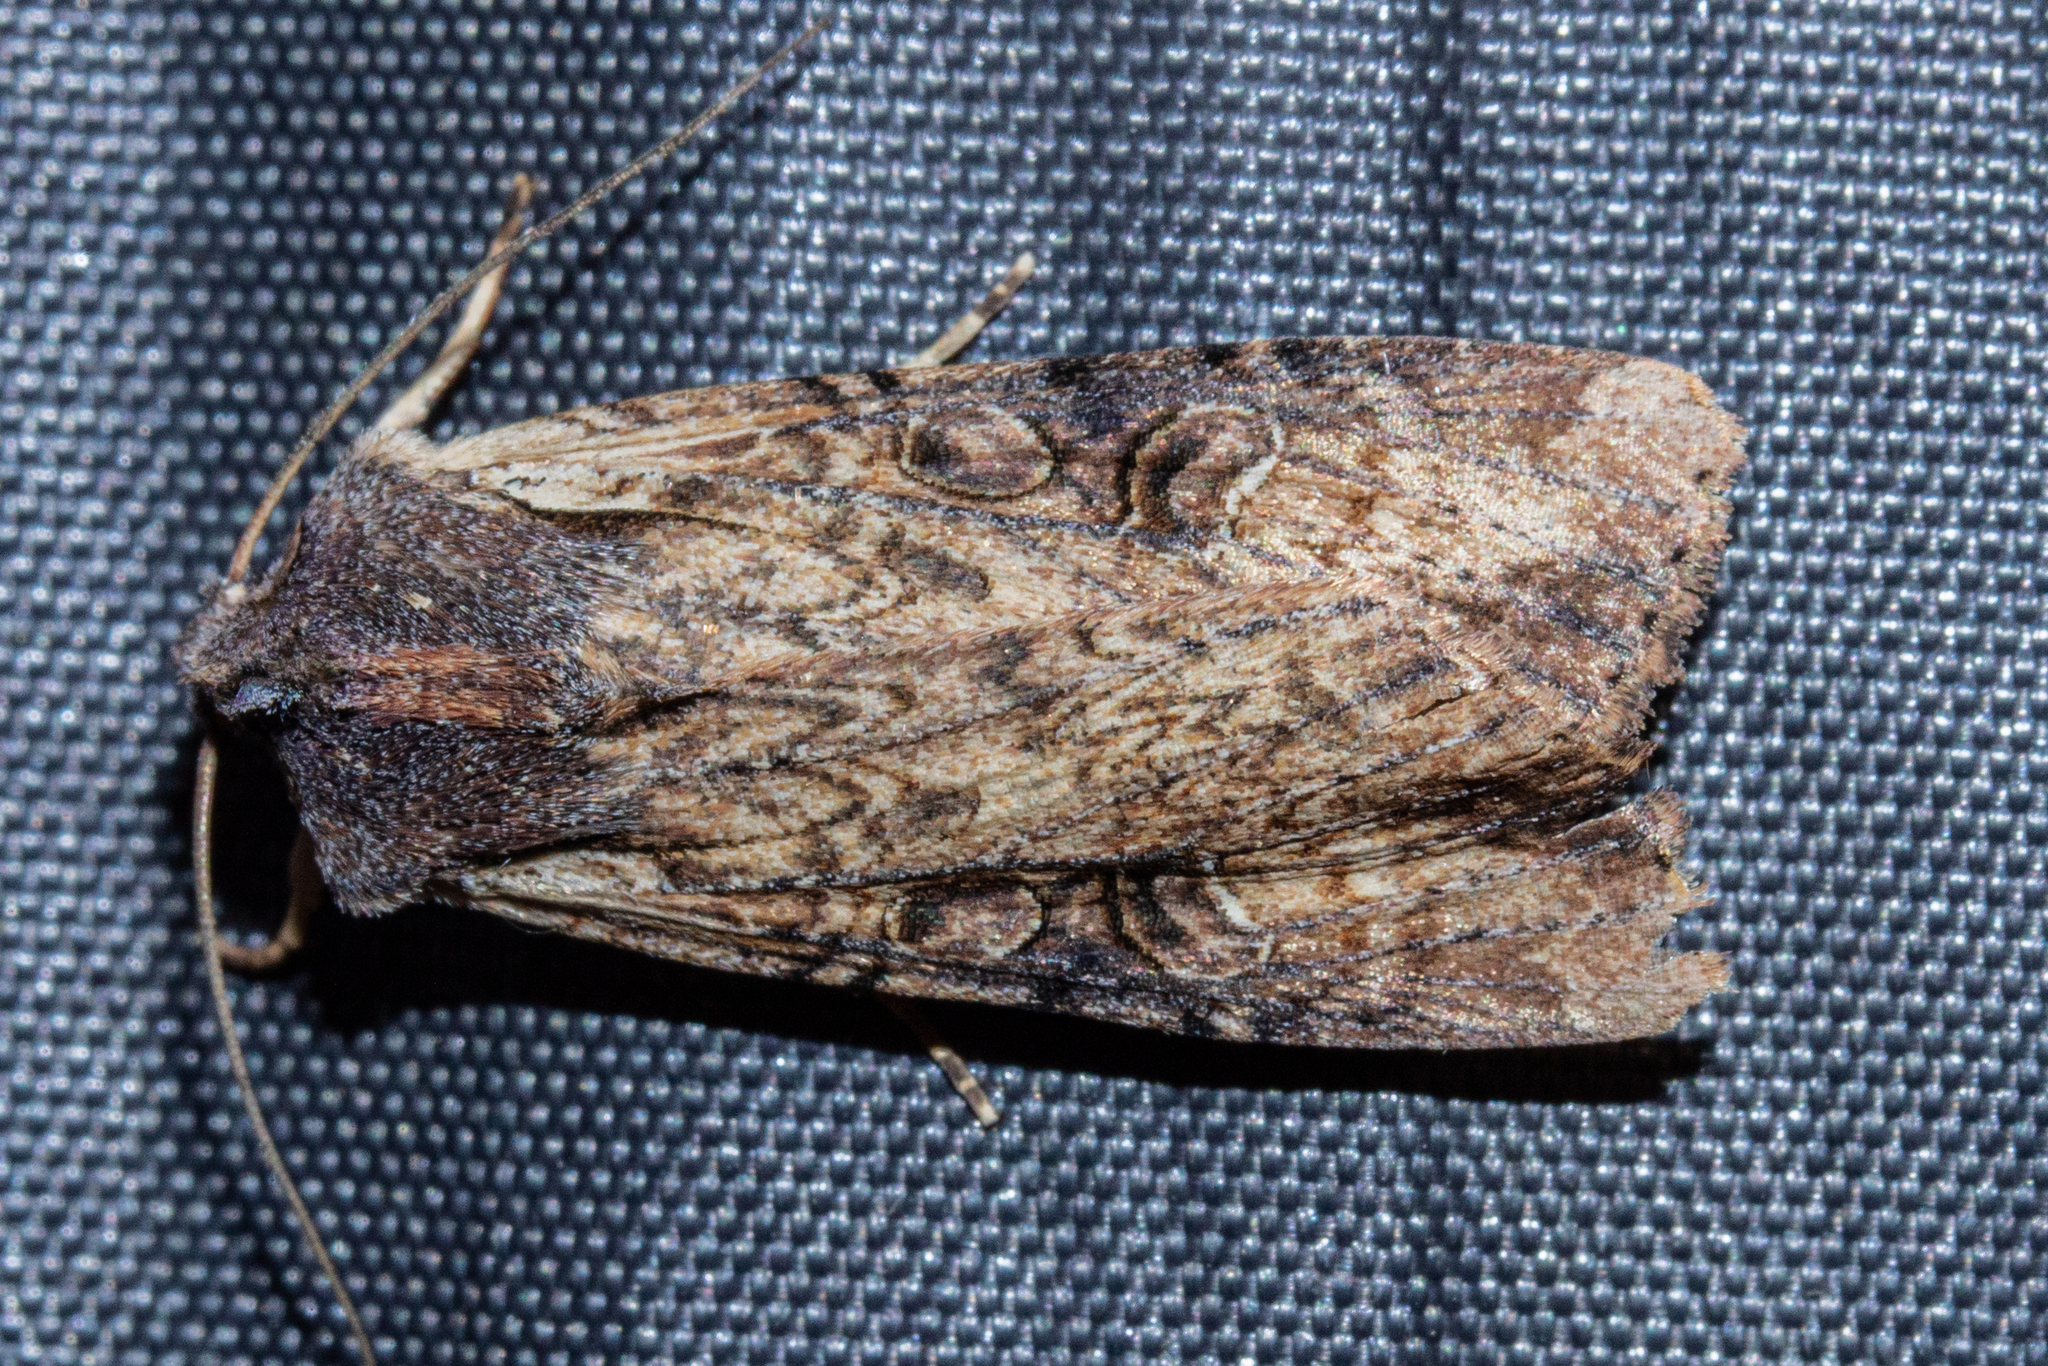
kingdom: Animalia
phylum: Arthropoda
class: Insecta
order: Lepidoptera
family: Noctuidae
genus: Ichneutica
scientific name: Ichneutica omoplaca
